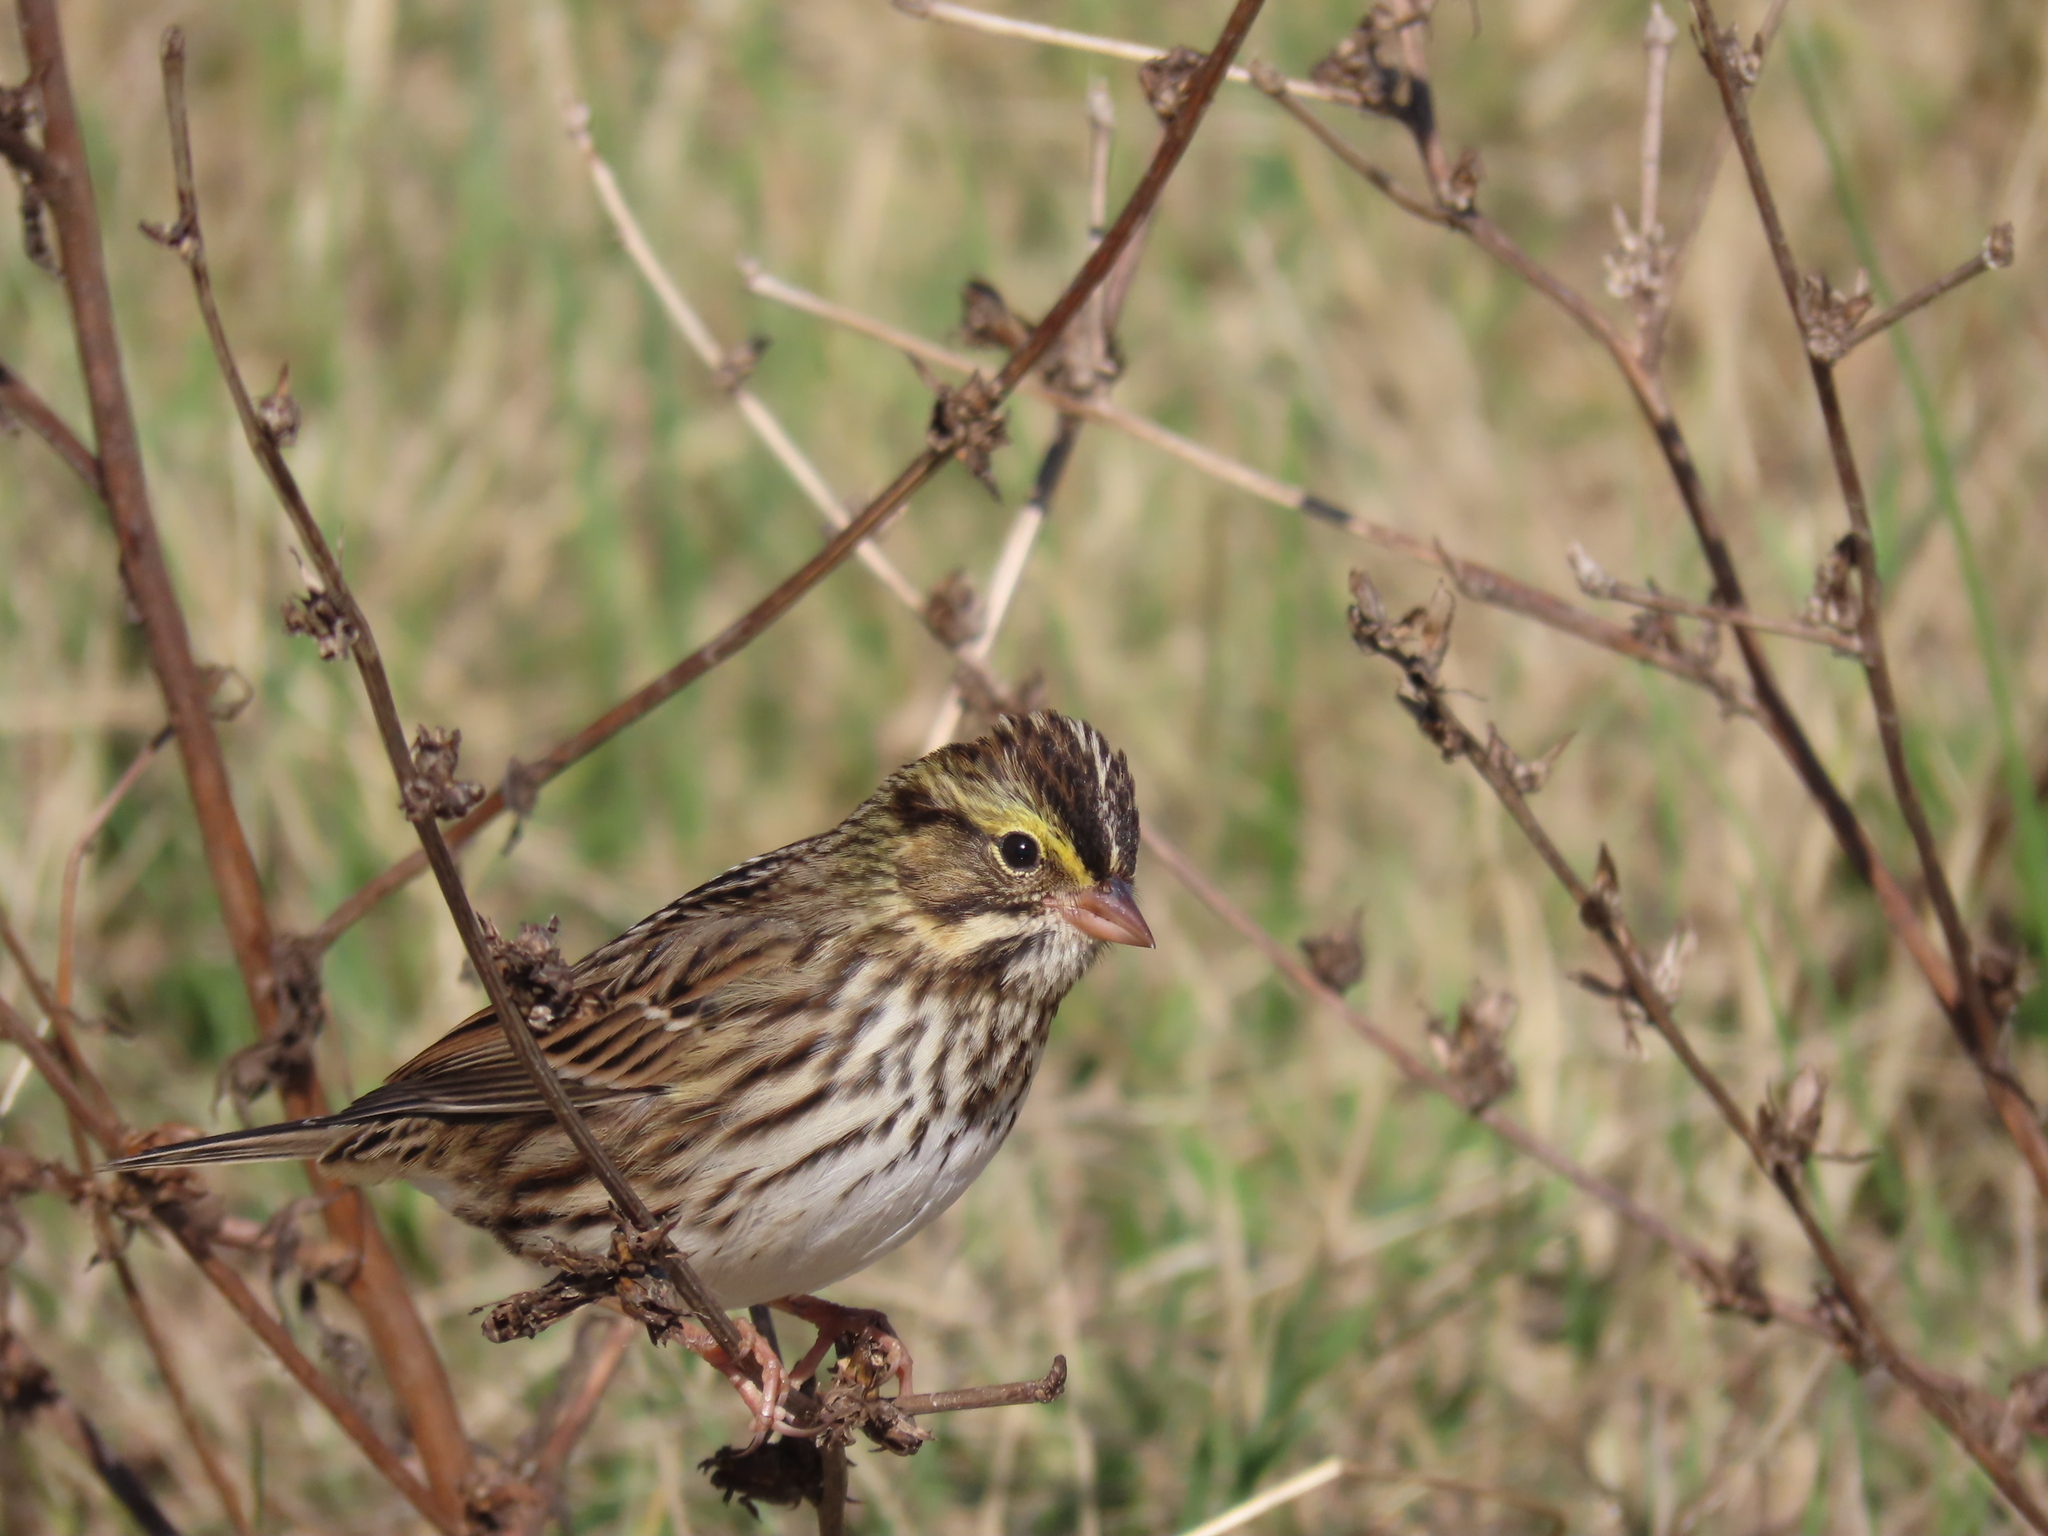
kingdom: Animalia
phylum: Chordata
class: Aves
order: Passeriformes
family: Passerellidae
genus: Passerculus
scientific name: Passerculus sandwichensis
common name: Savannah sparrow
